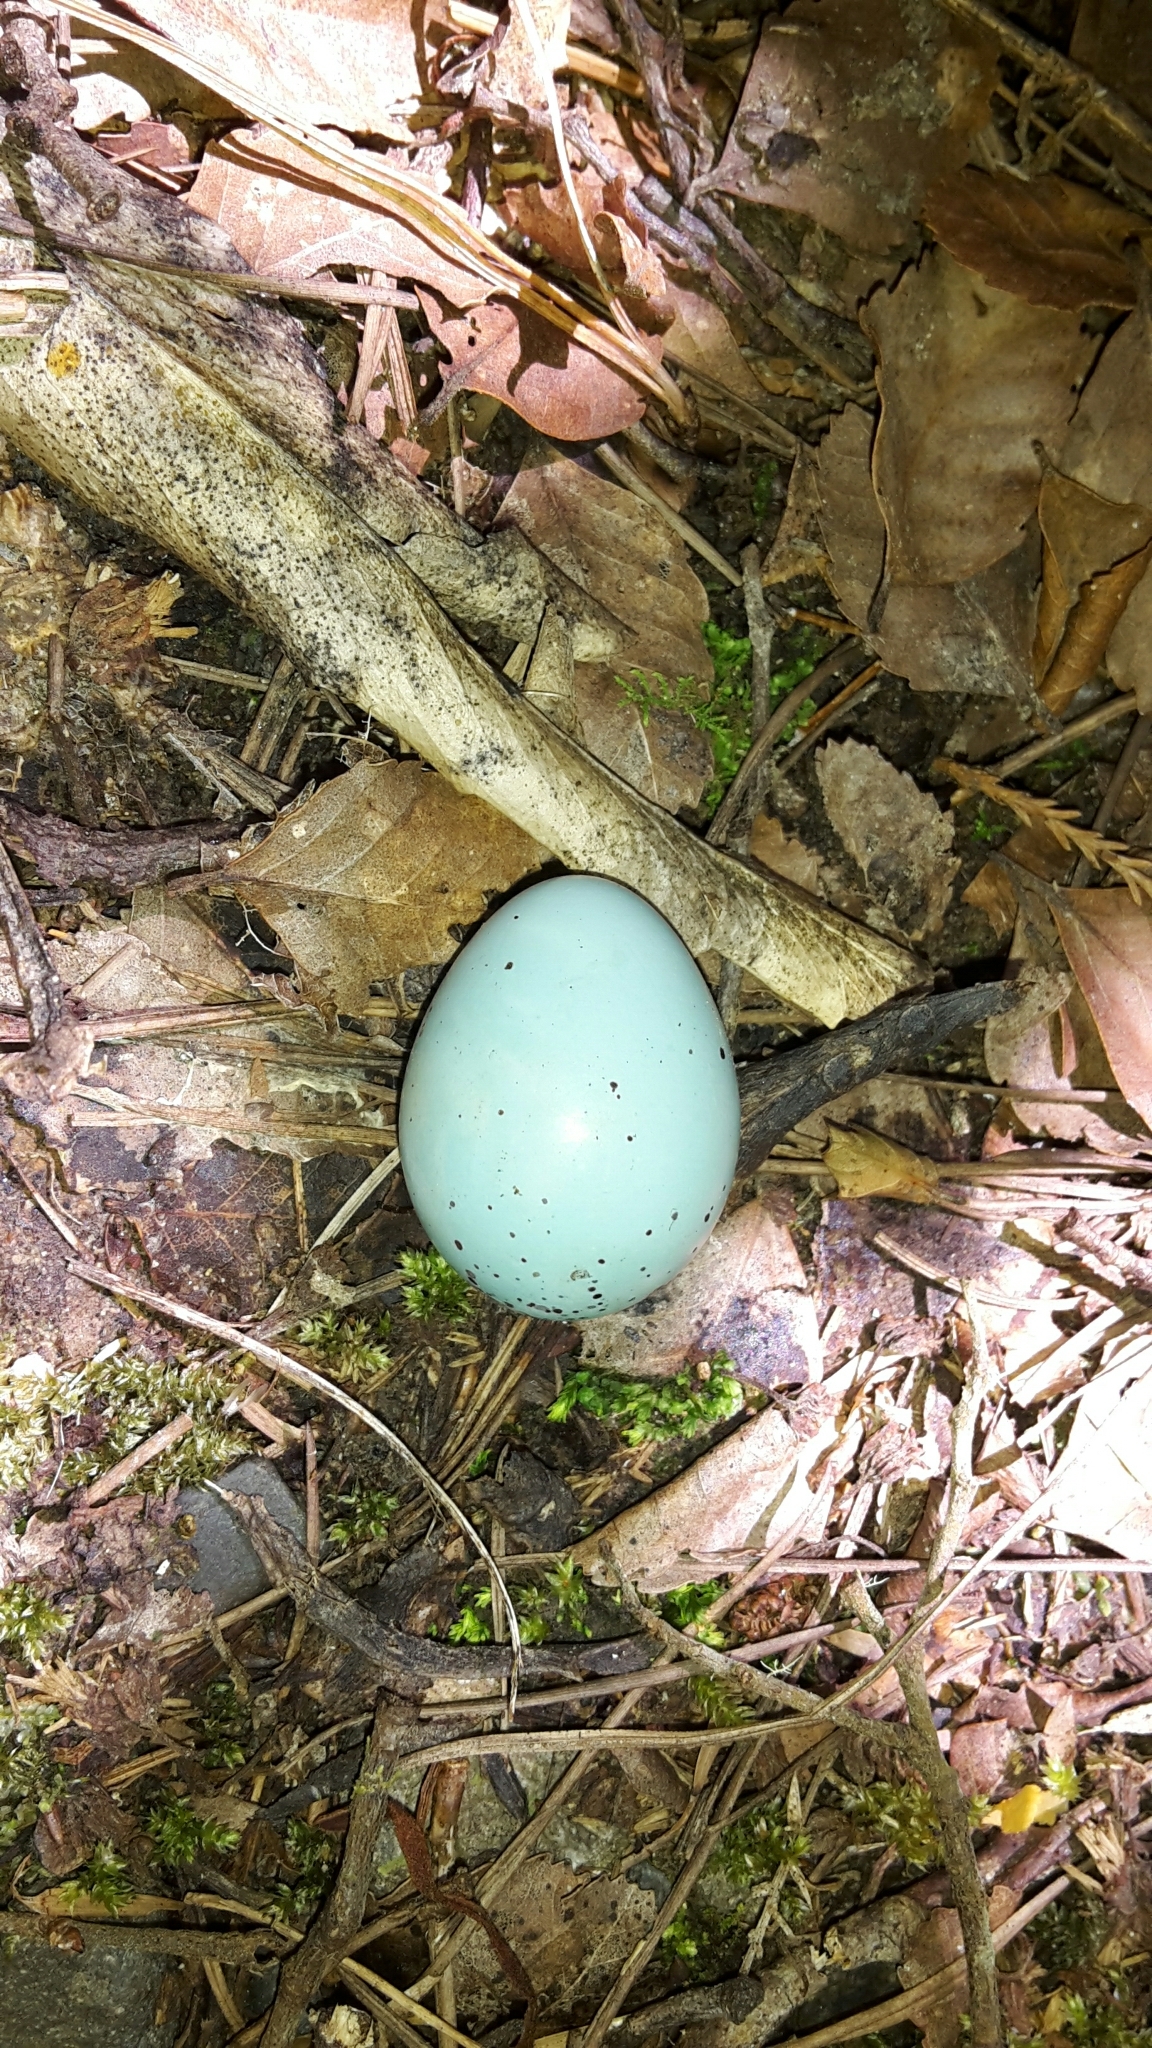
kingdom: Animalia
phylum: Chordata
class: Aves
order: Passeriformes
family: Turdidae
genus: Turdus
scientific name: Turdus philomelos
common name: Song thrush
